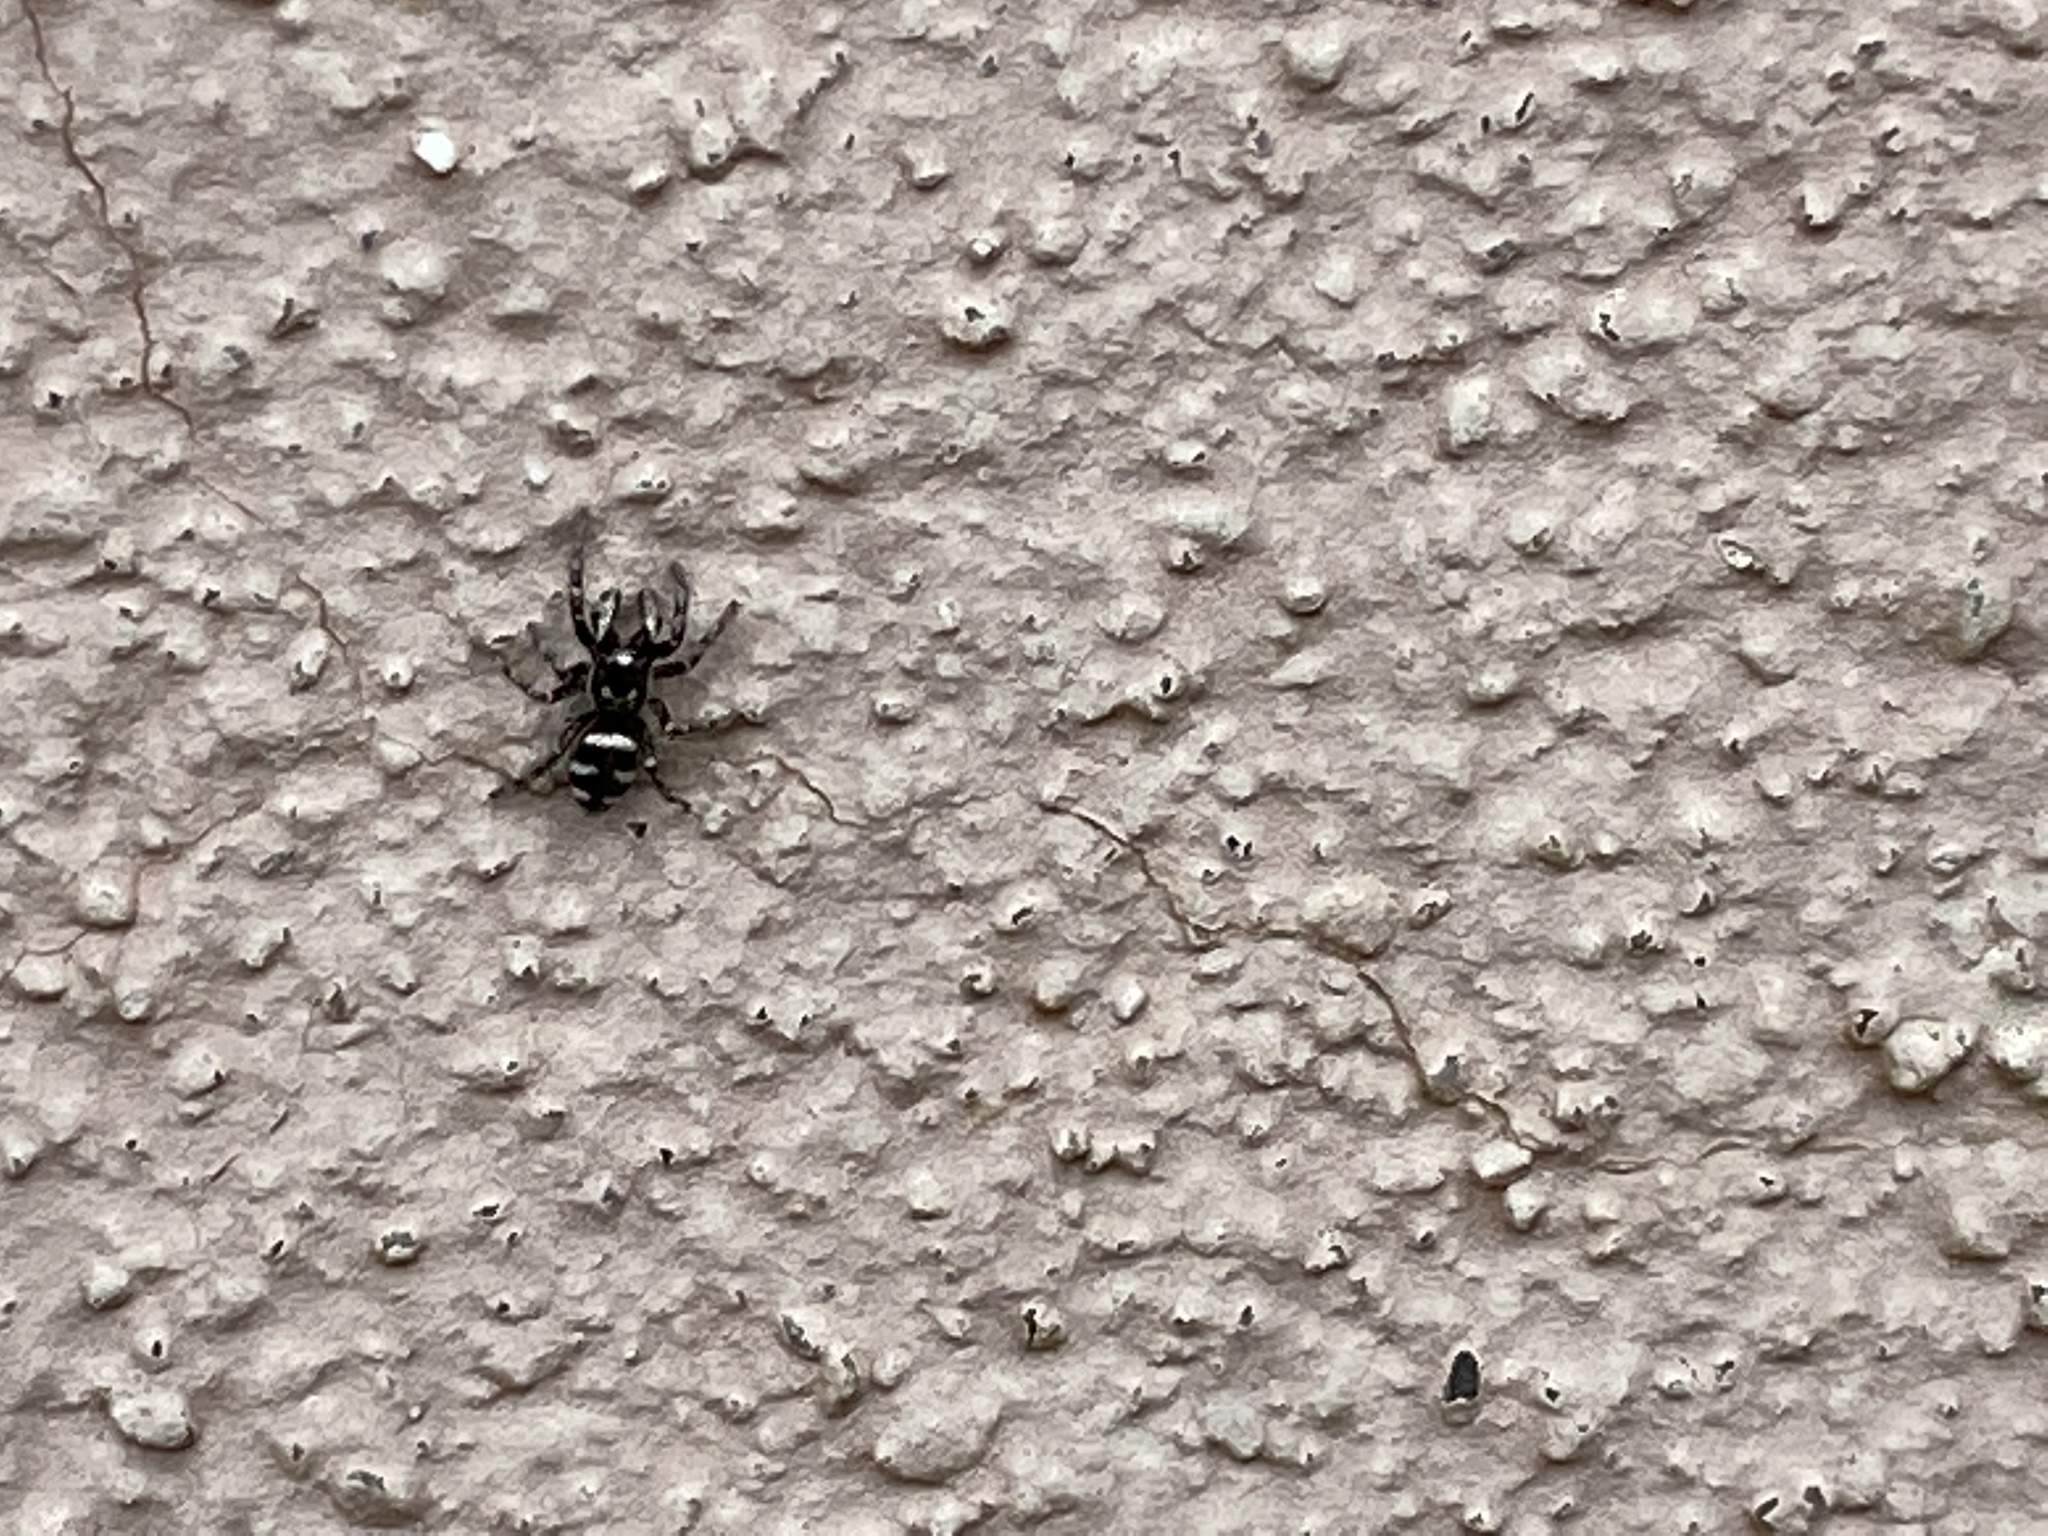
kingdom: Animalia
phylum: Arthropoda
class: Arachnida
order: Araneae
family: Salticidae
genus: Salticus
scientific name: Salticus scenicus
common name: Zebra jumper
